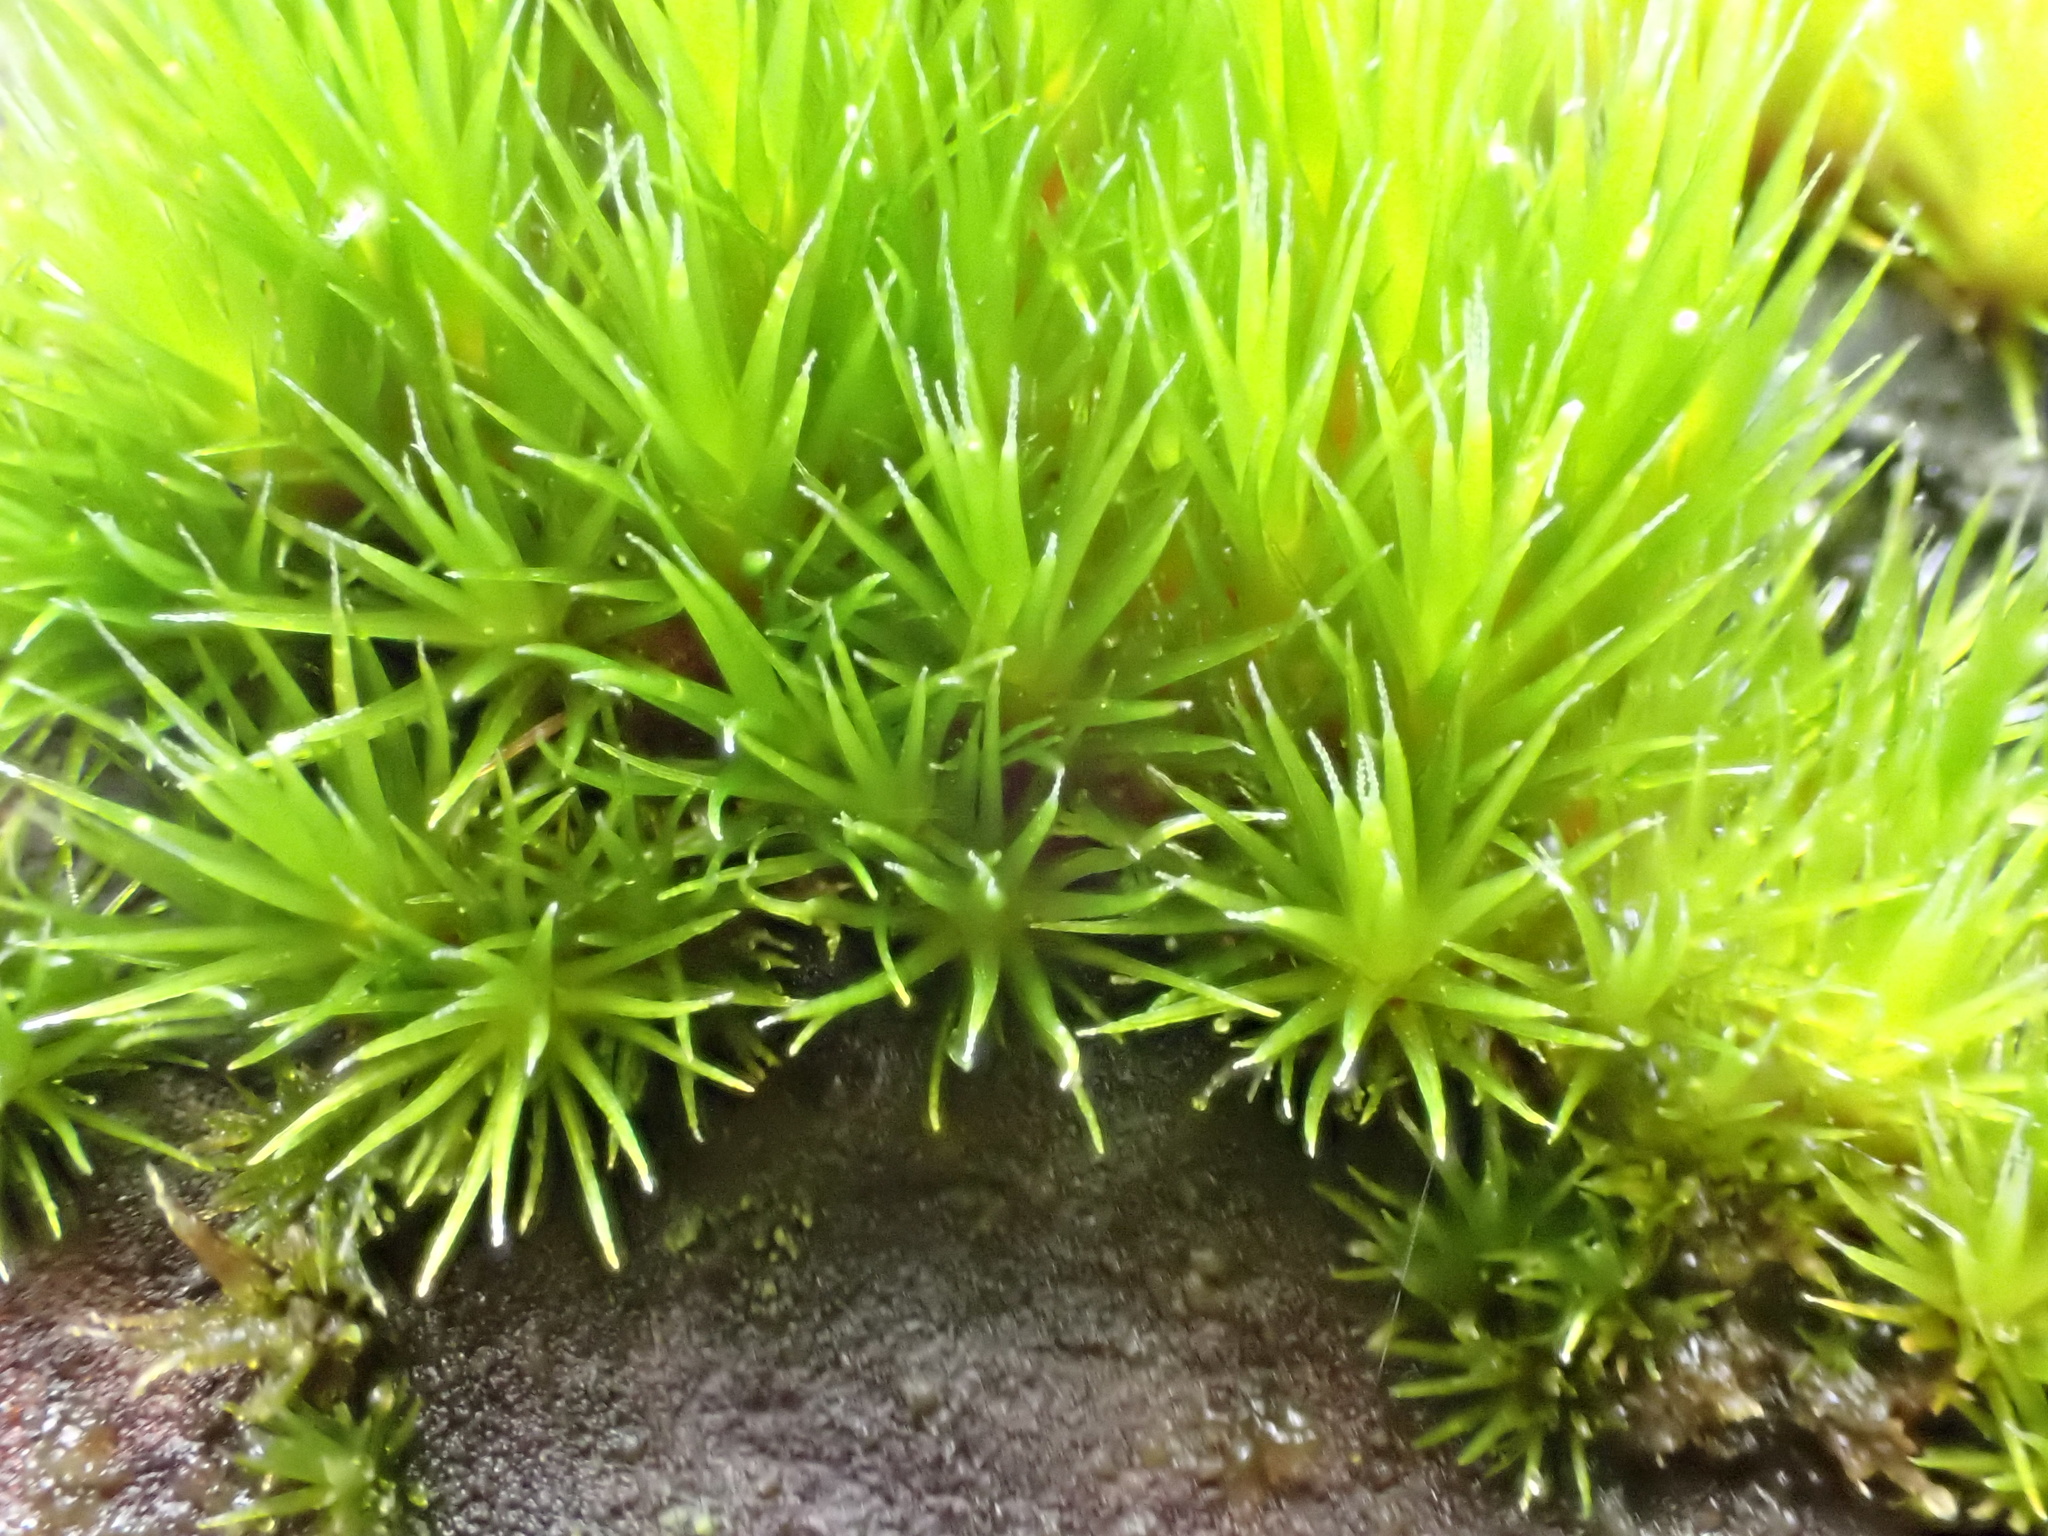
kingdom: Plantae
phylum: Bryophyta
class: Bryopsida
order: Dicranales
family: Leucobryaceae
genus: Campylopus
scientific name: Campylopus introflexus
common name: Heath star moss
